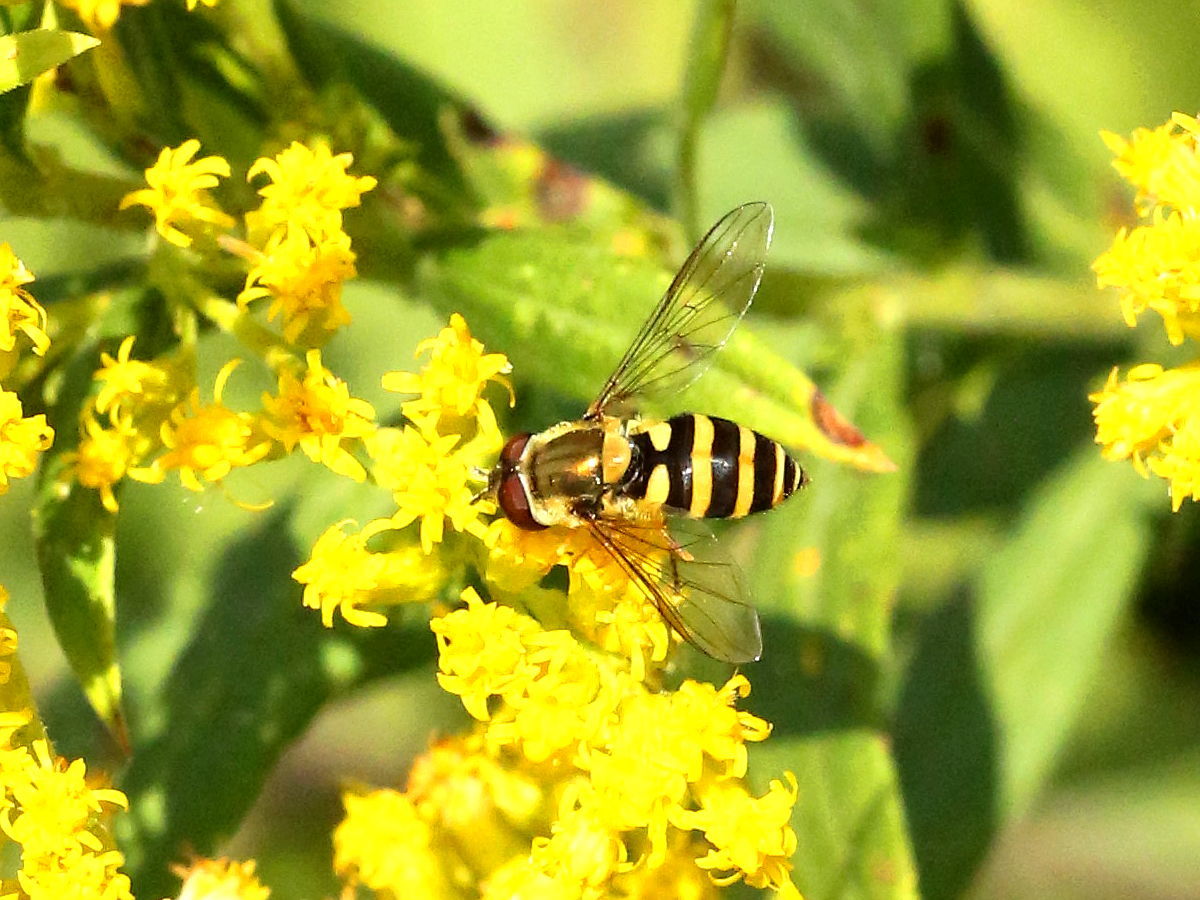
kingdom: Animalia
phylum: Arthropoda
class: Insecta
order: Diptera
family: Syrphidae
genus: Syrphus
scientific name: Syrphus
